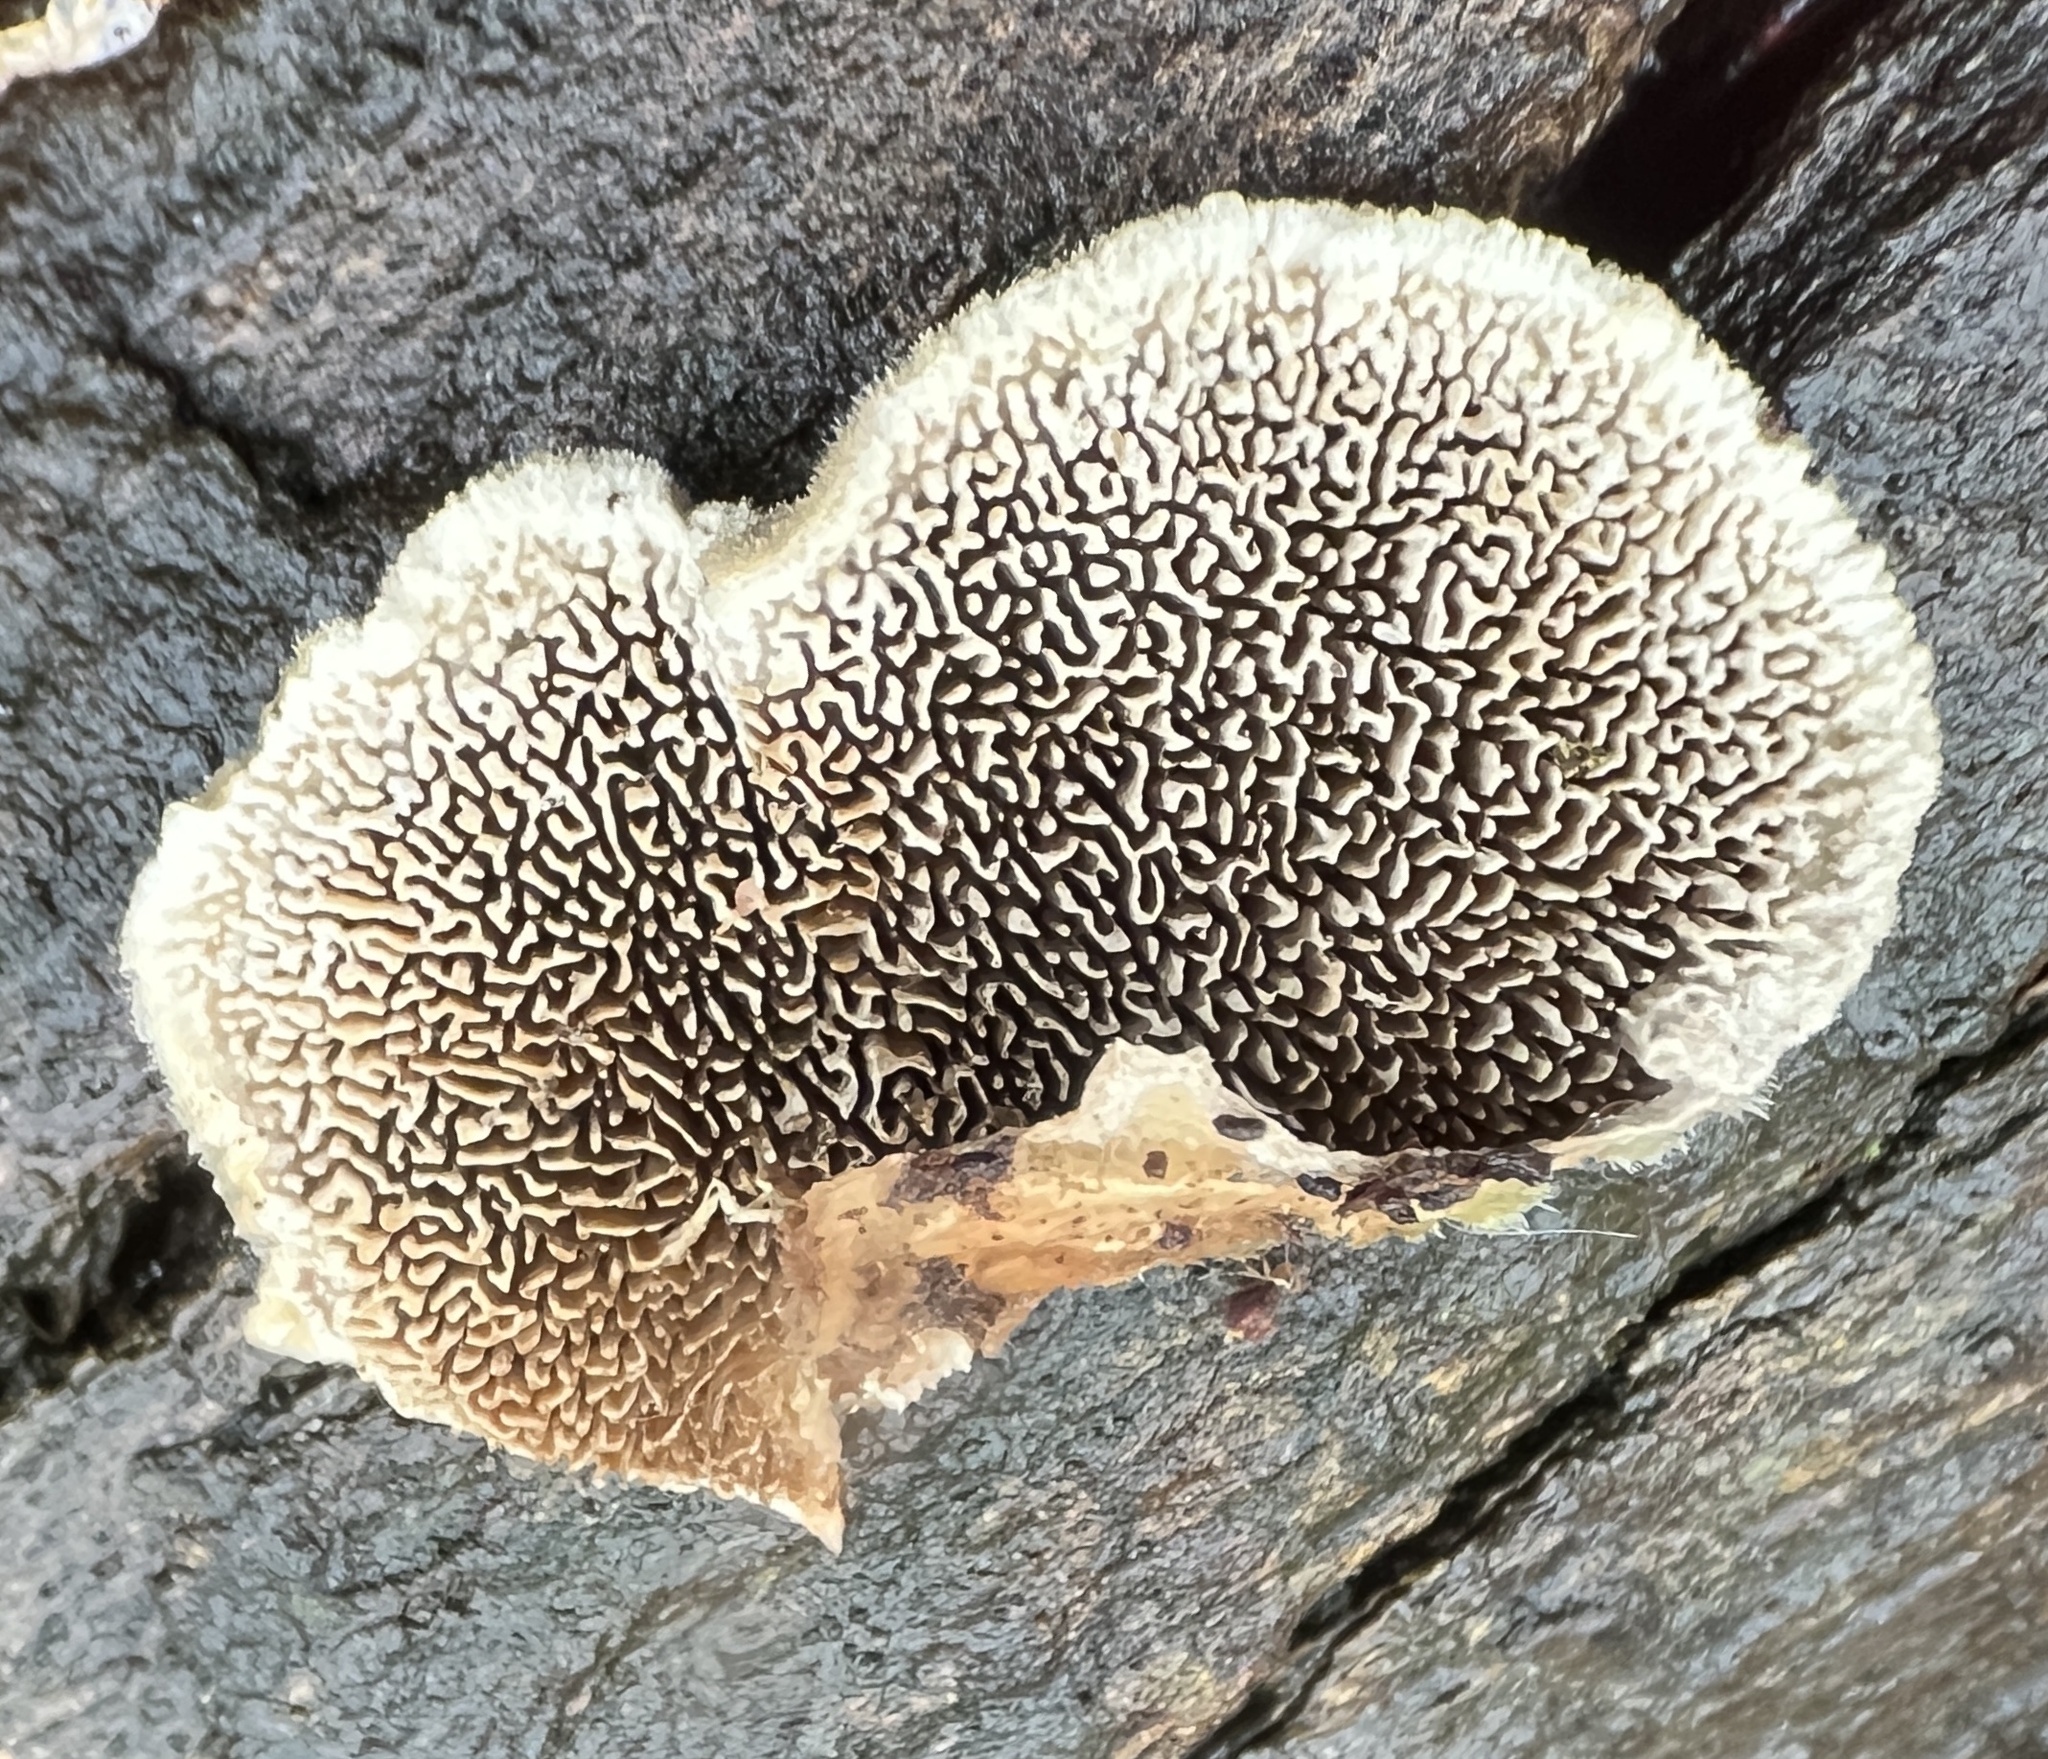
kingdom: Fungi
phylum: Basidiomycota
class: Agaricomycetes
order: Polyporales
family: Cerrenaceae
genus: Cerrena
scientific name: Cerrena unicolor
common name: Mossy maze polypore
